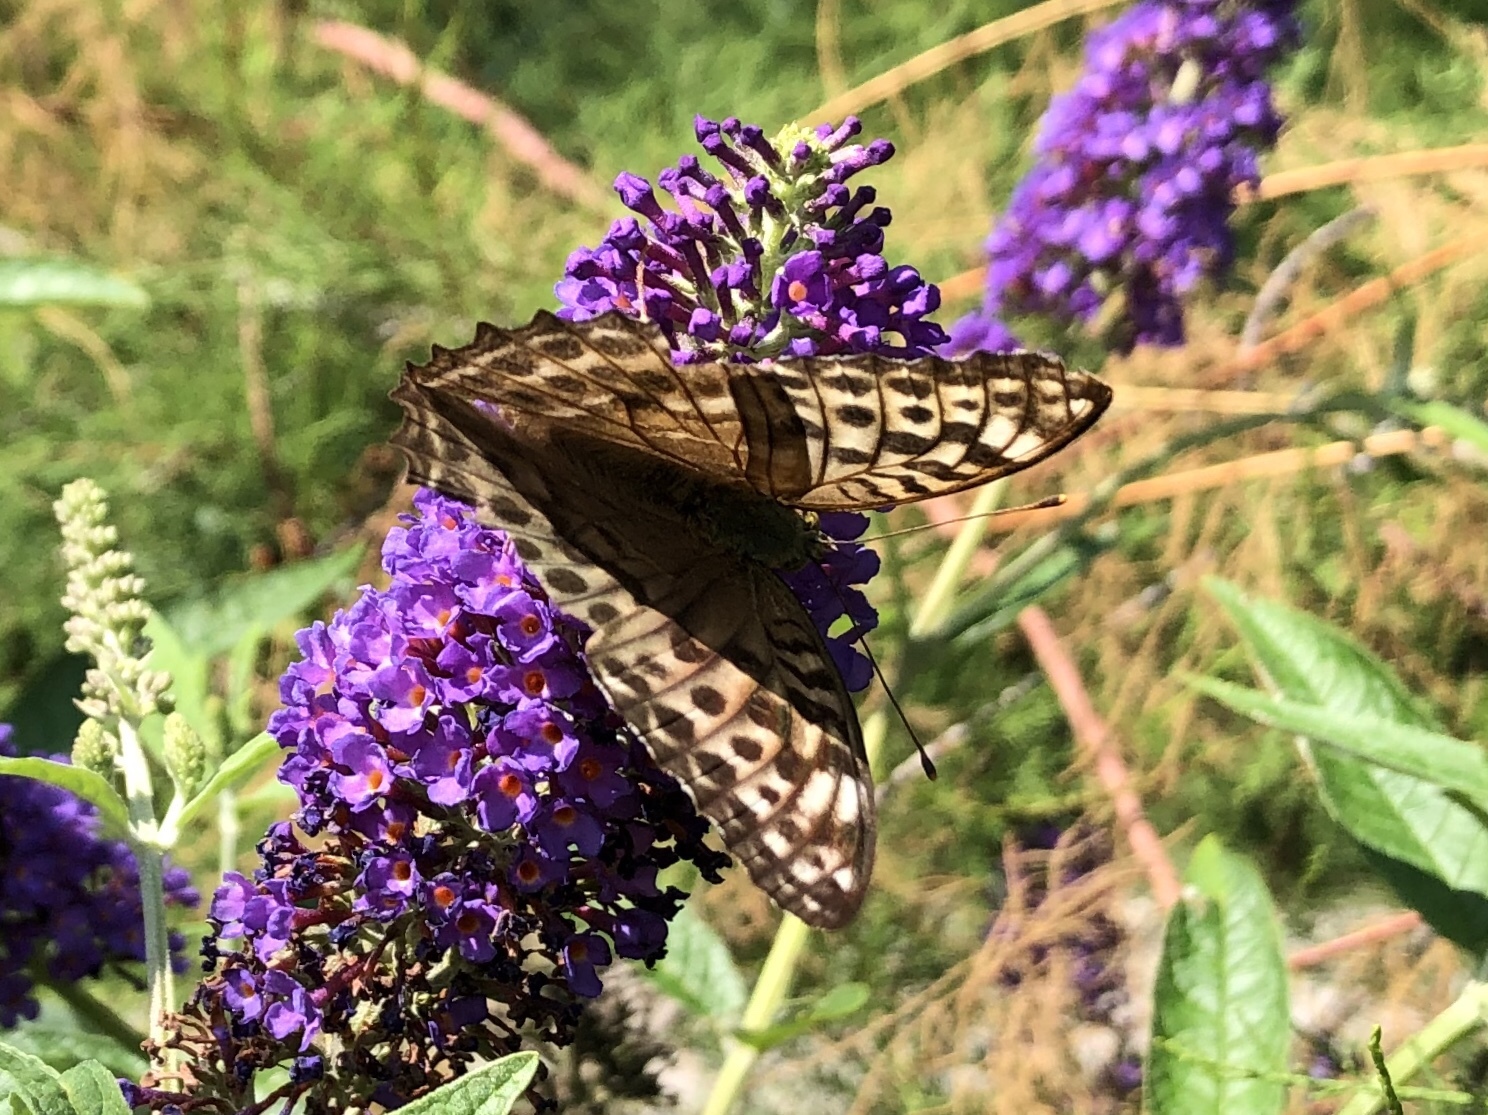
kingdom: Animalia
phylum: Arthropoda
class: Insecta
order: Lepidoptera
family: Nymphalidae
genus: Argynnis
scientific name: Argynnis paphia
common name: Silver-washed fritillary
